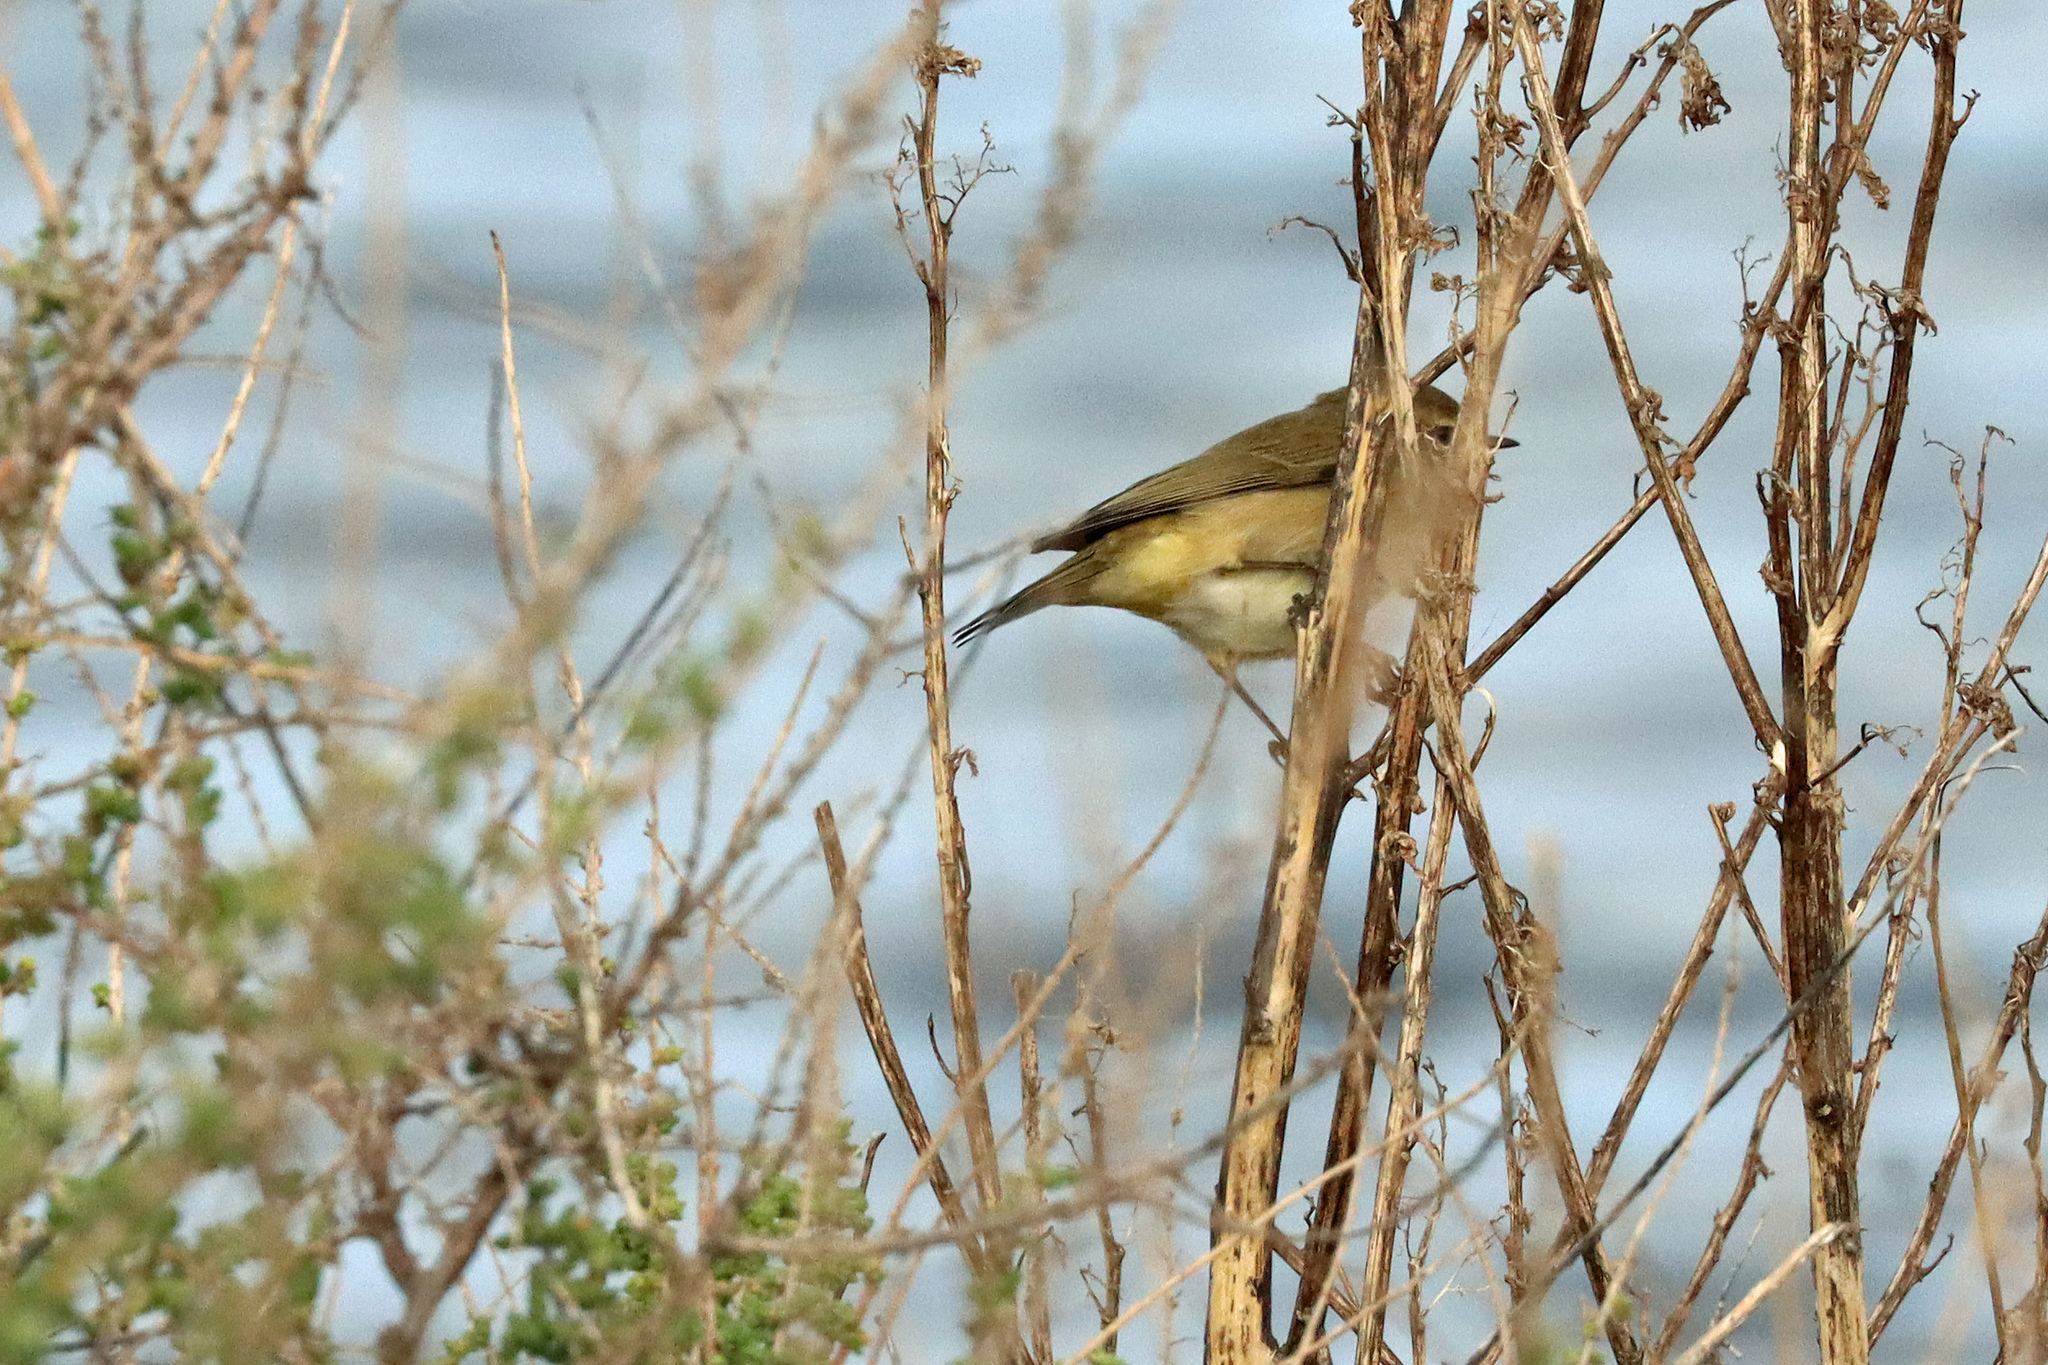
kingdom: Animalia
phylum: Chordata
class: Aves
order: Passeriformes
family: Phylloscopidae
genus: Phylloscopus
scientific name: Phylloscopus collybita
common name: Common chiffchaff
